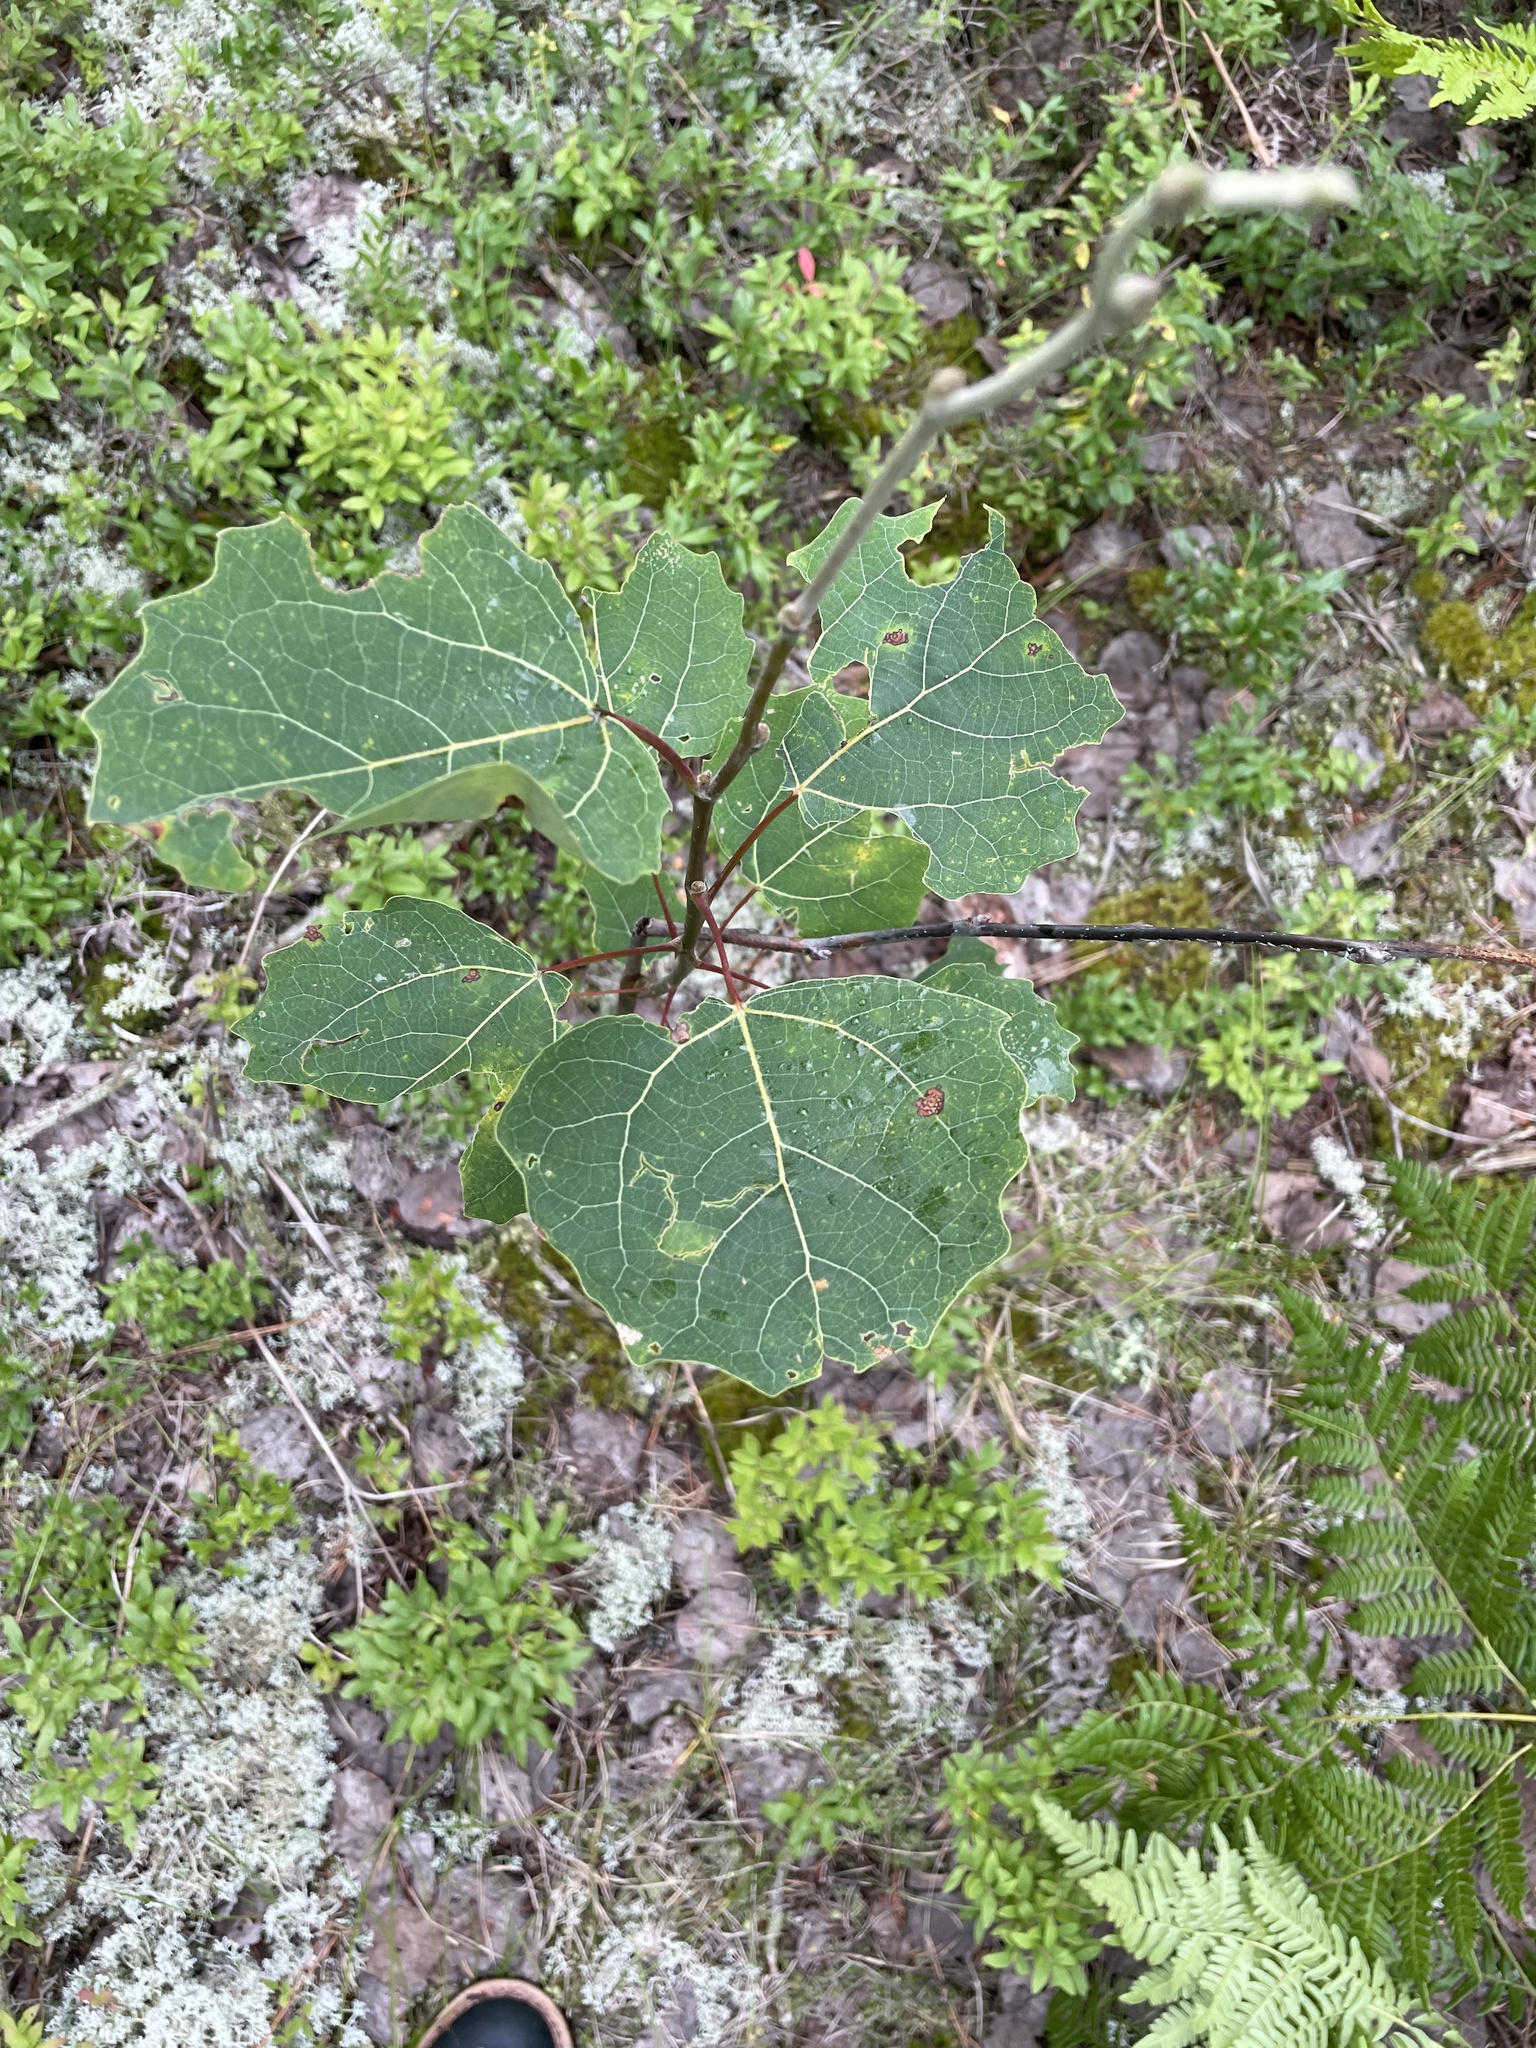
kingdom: Plantae
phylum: Tracheophyta
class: Magnoliopsida
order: Malpighiales
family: Salicaceae
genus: Populus
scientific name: Populus grandidentata
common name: Bigtooth aspen
